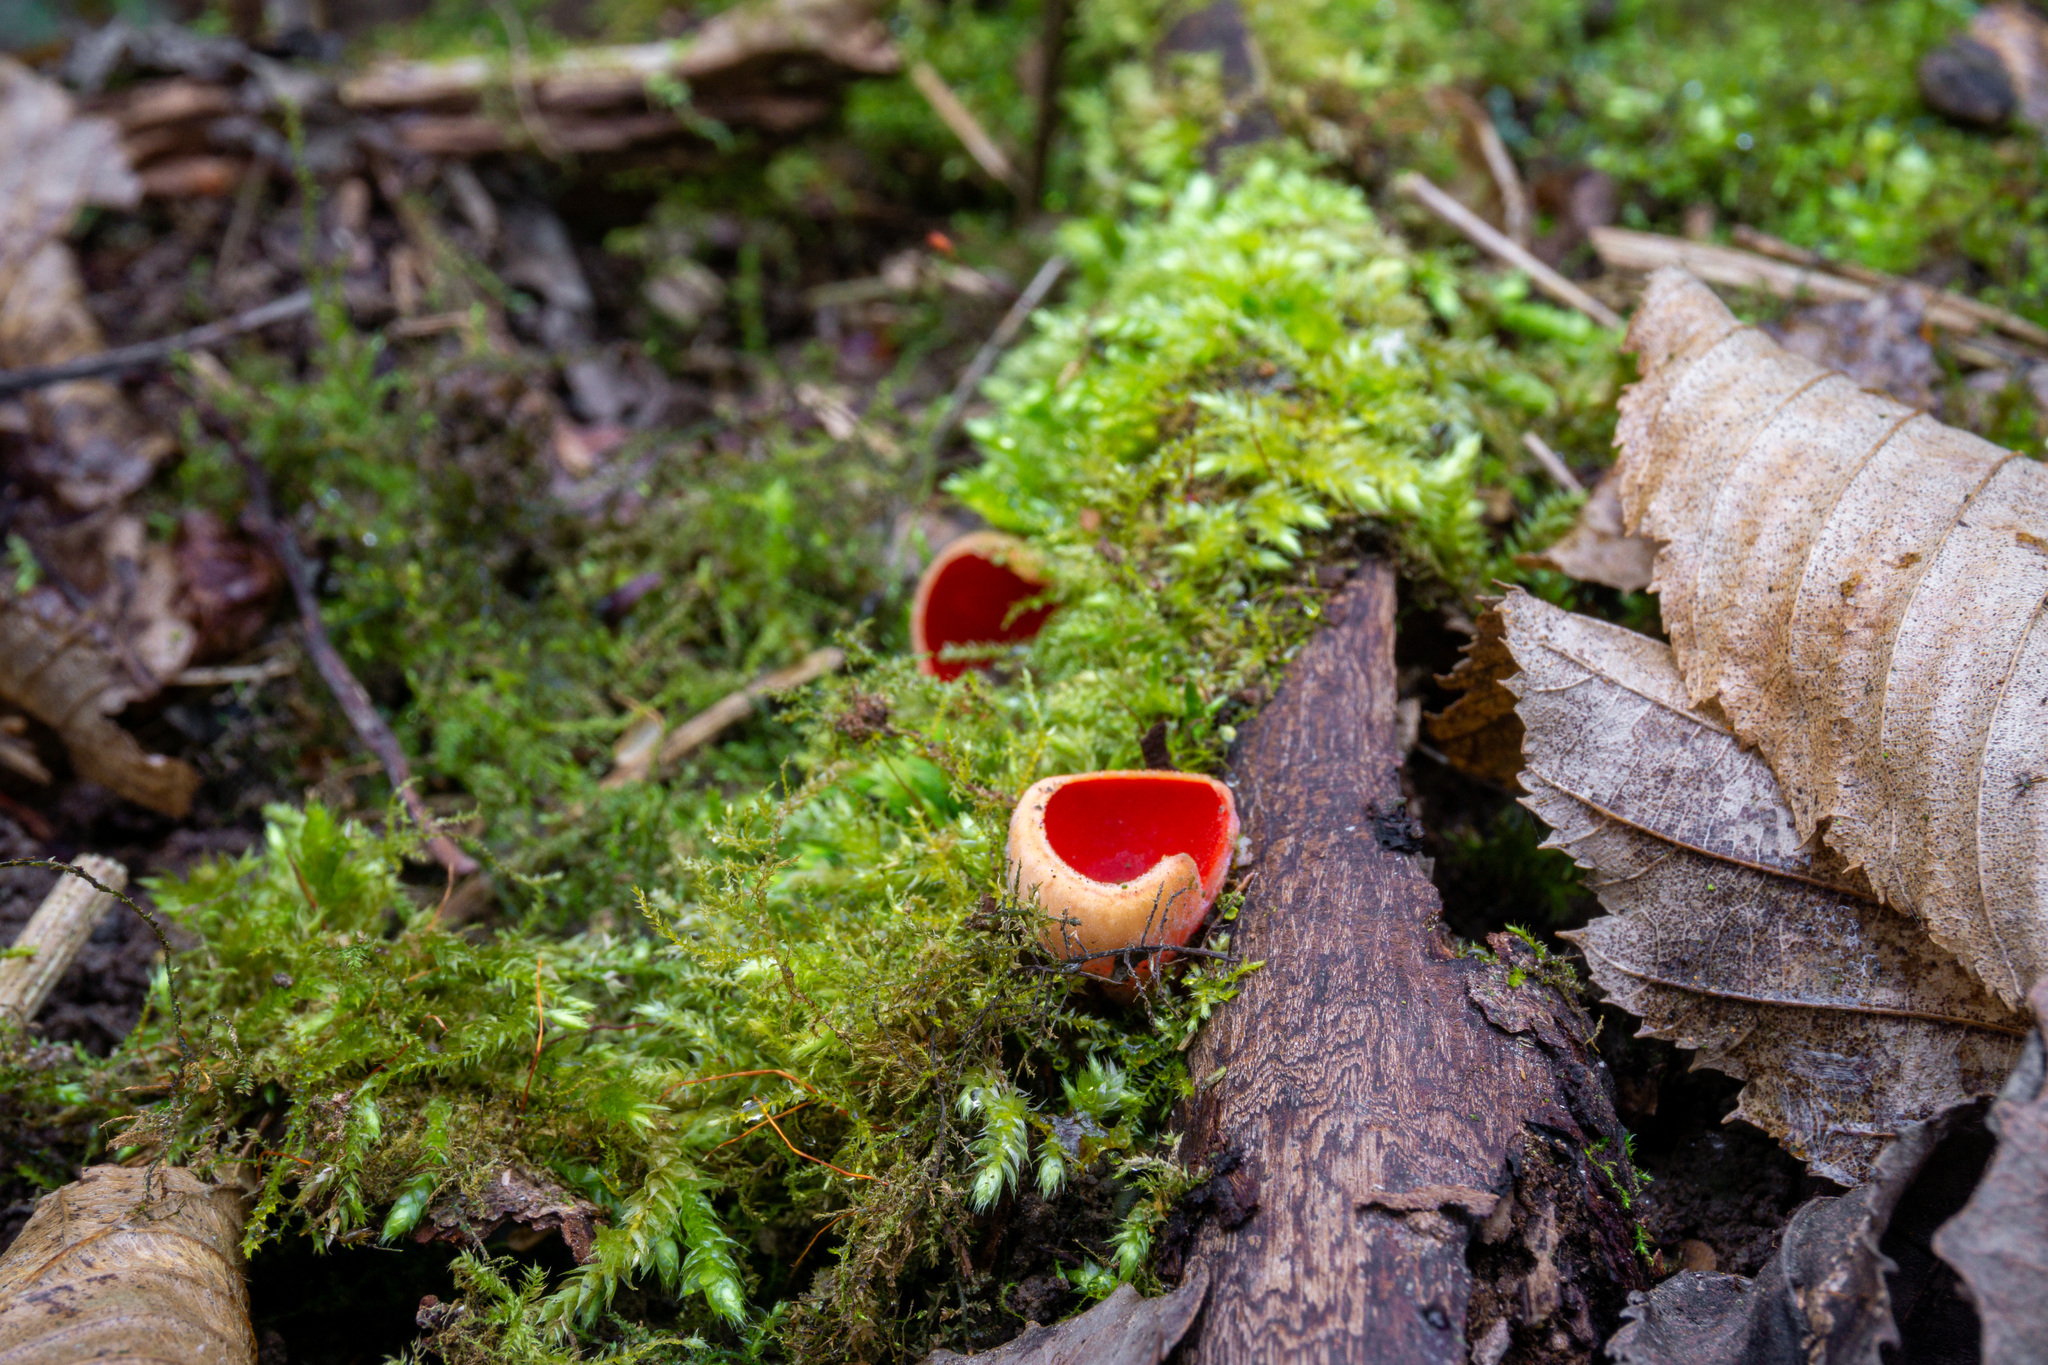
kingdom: Fungi
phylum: Ascomycota
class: Pezizomycetes
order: Pezizales
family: Sarcoscyphaceae
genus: Sarcoscypha
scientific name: Sarcoscypha
